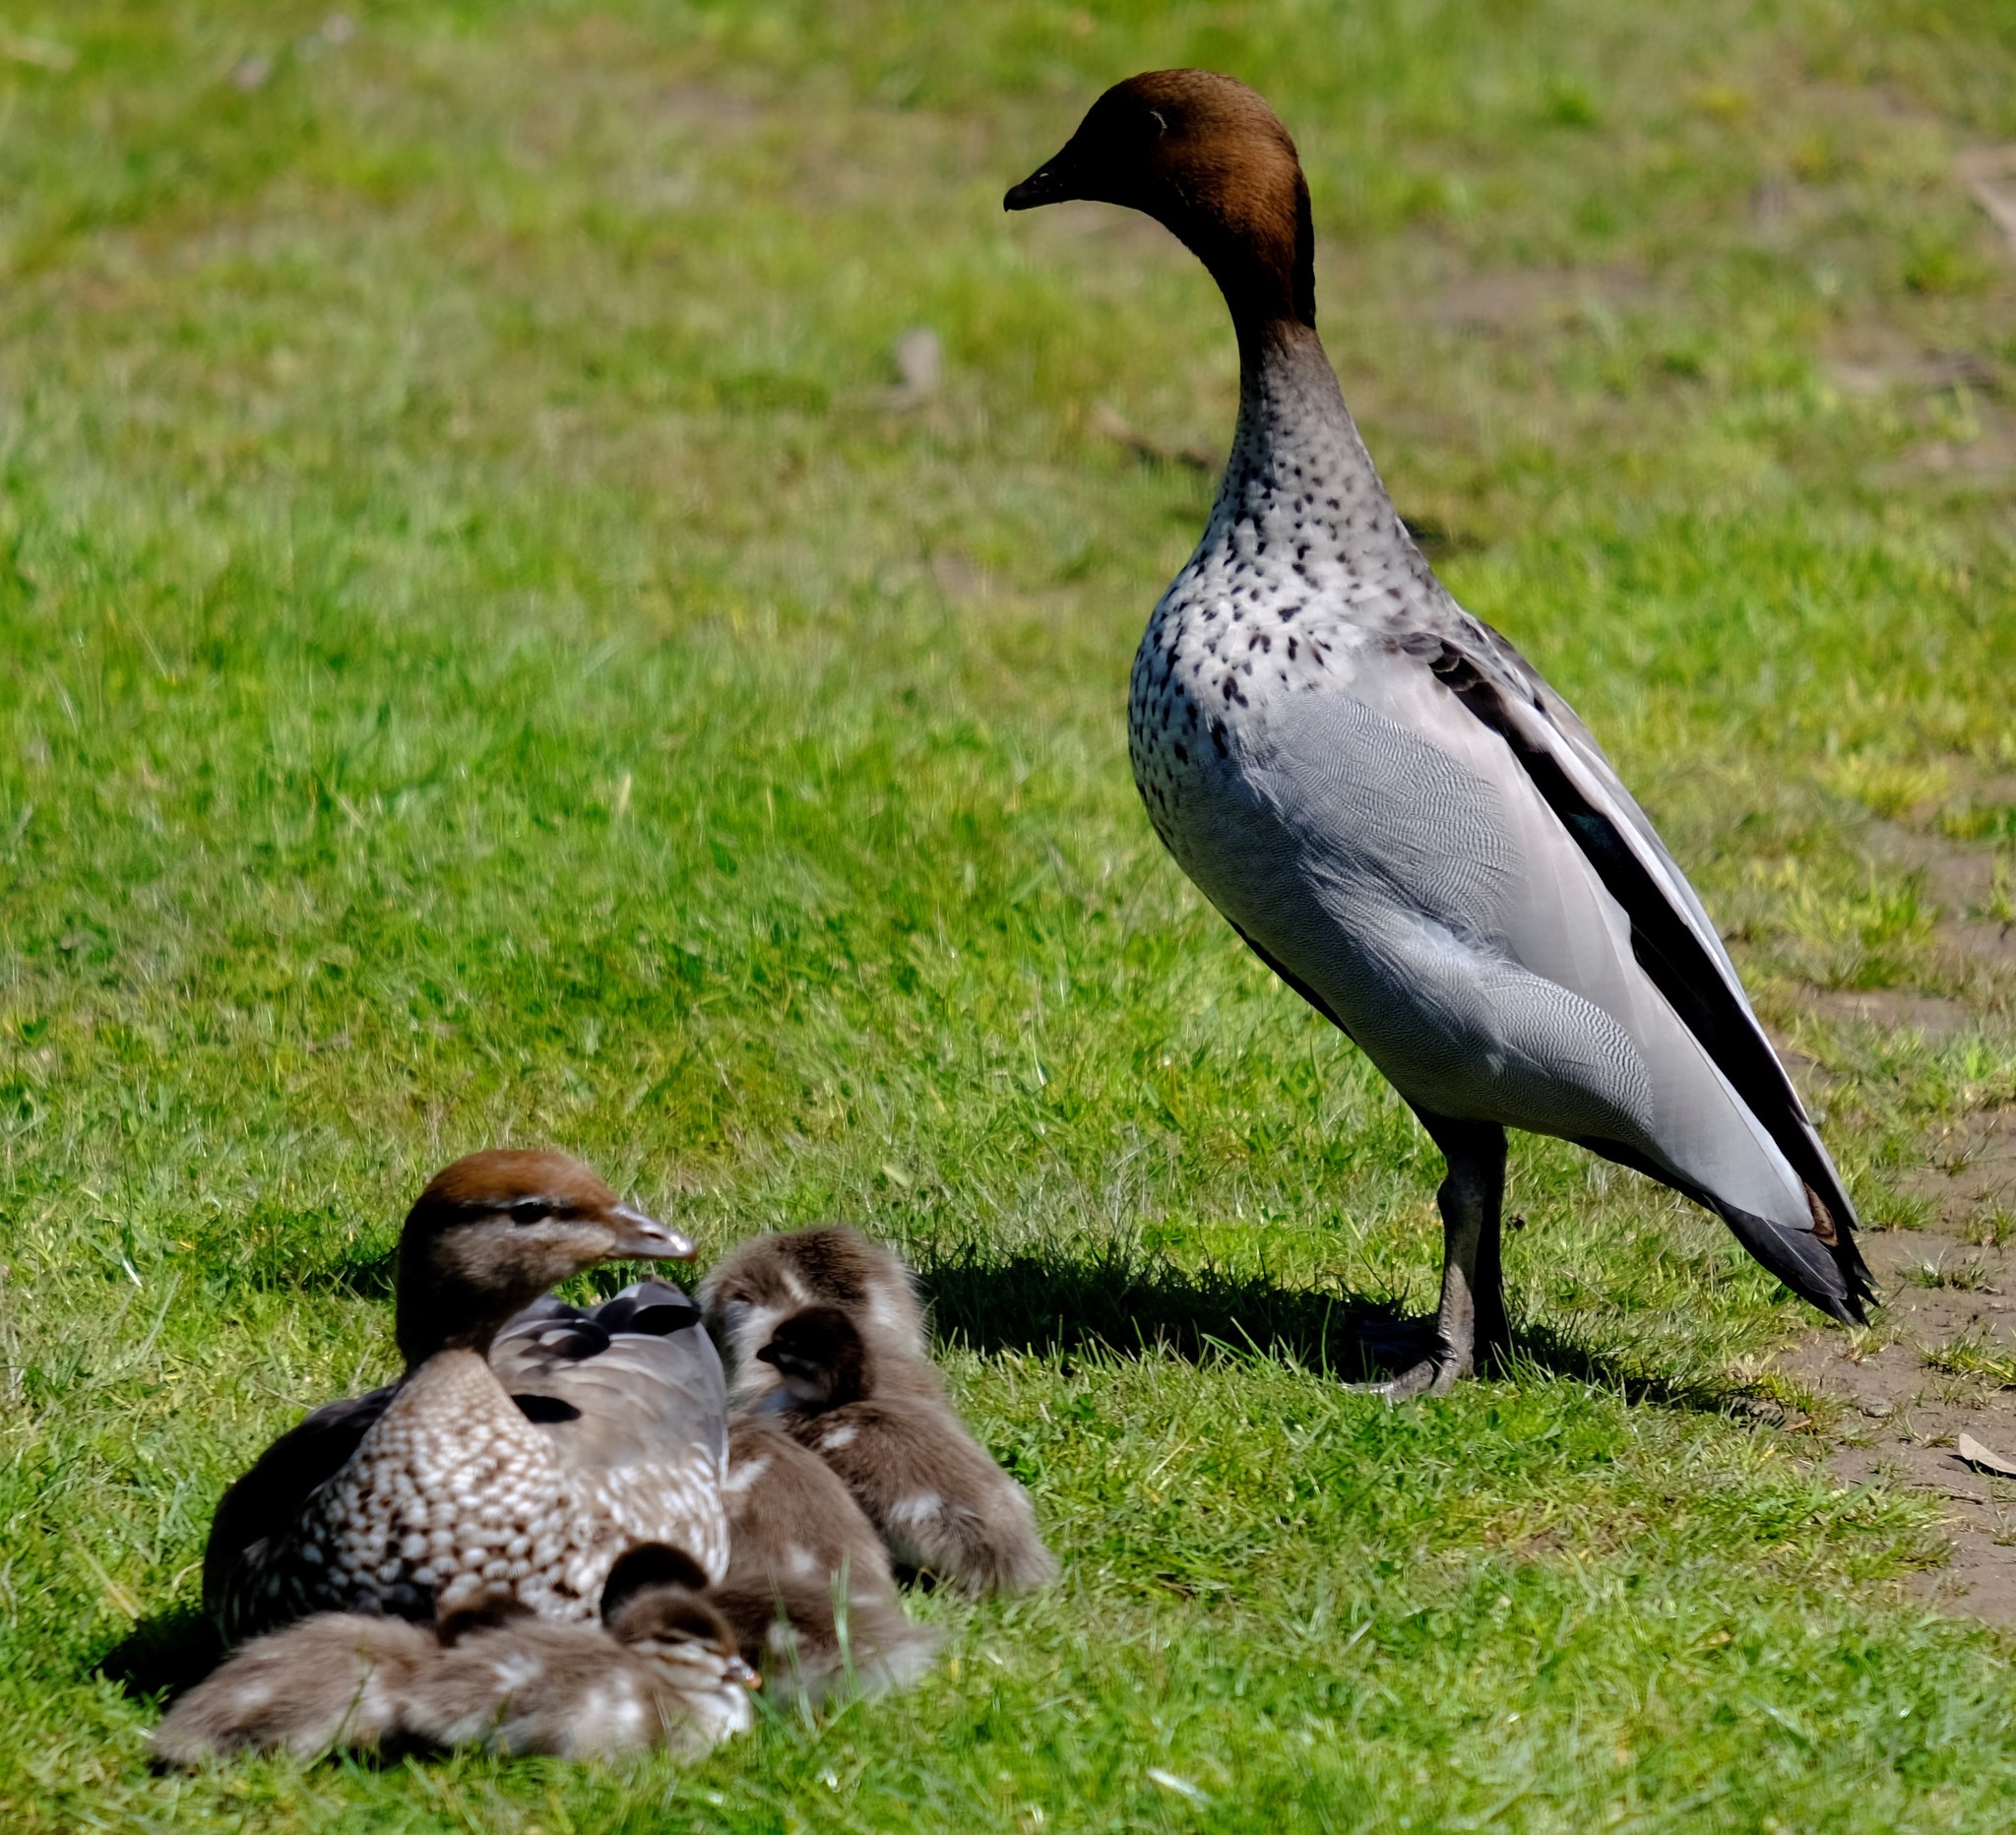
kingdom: Animalia
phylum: Chordata
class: Aves
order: Anseriformes
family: Anatidae
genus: Chenonetta
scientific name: Chenonetta jubata
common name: Maned duck
